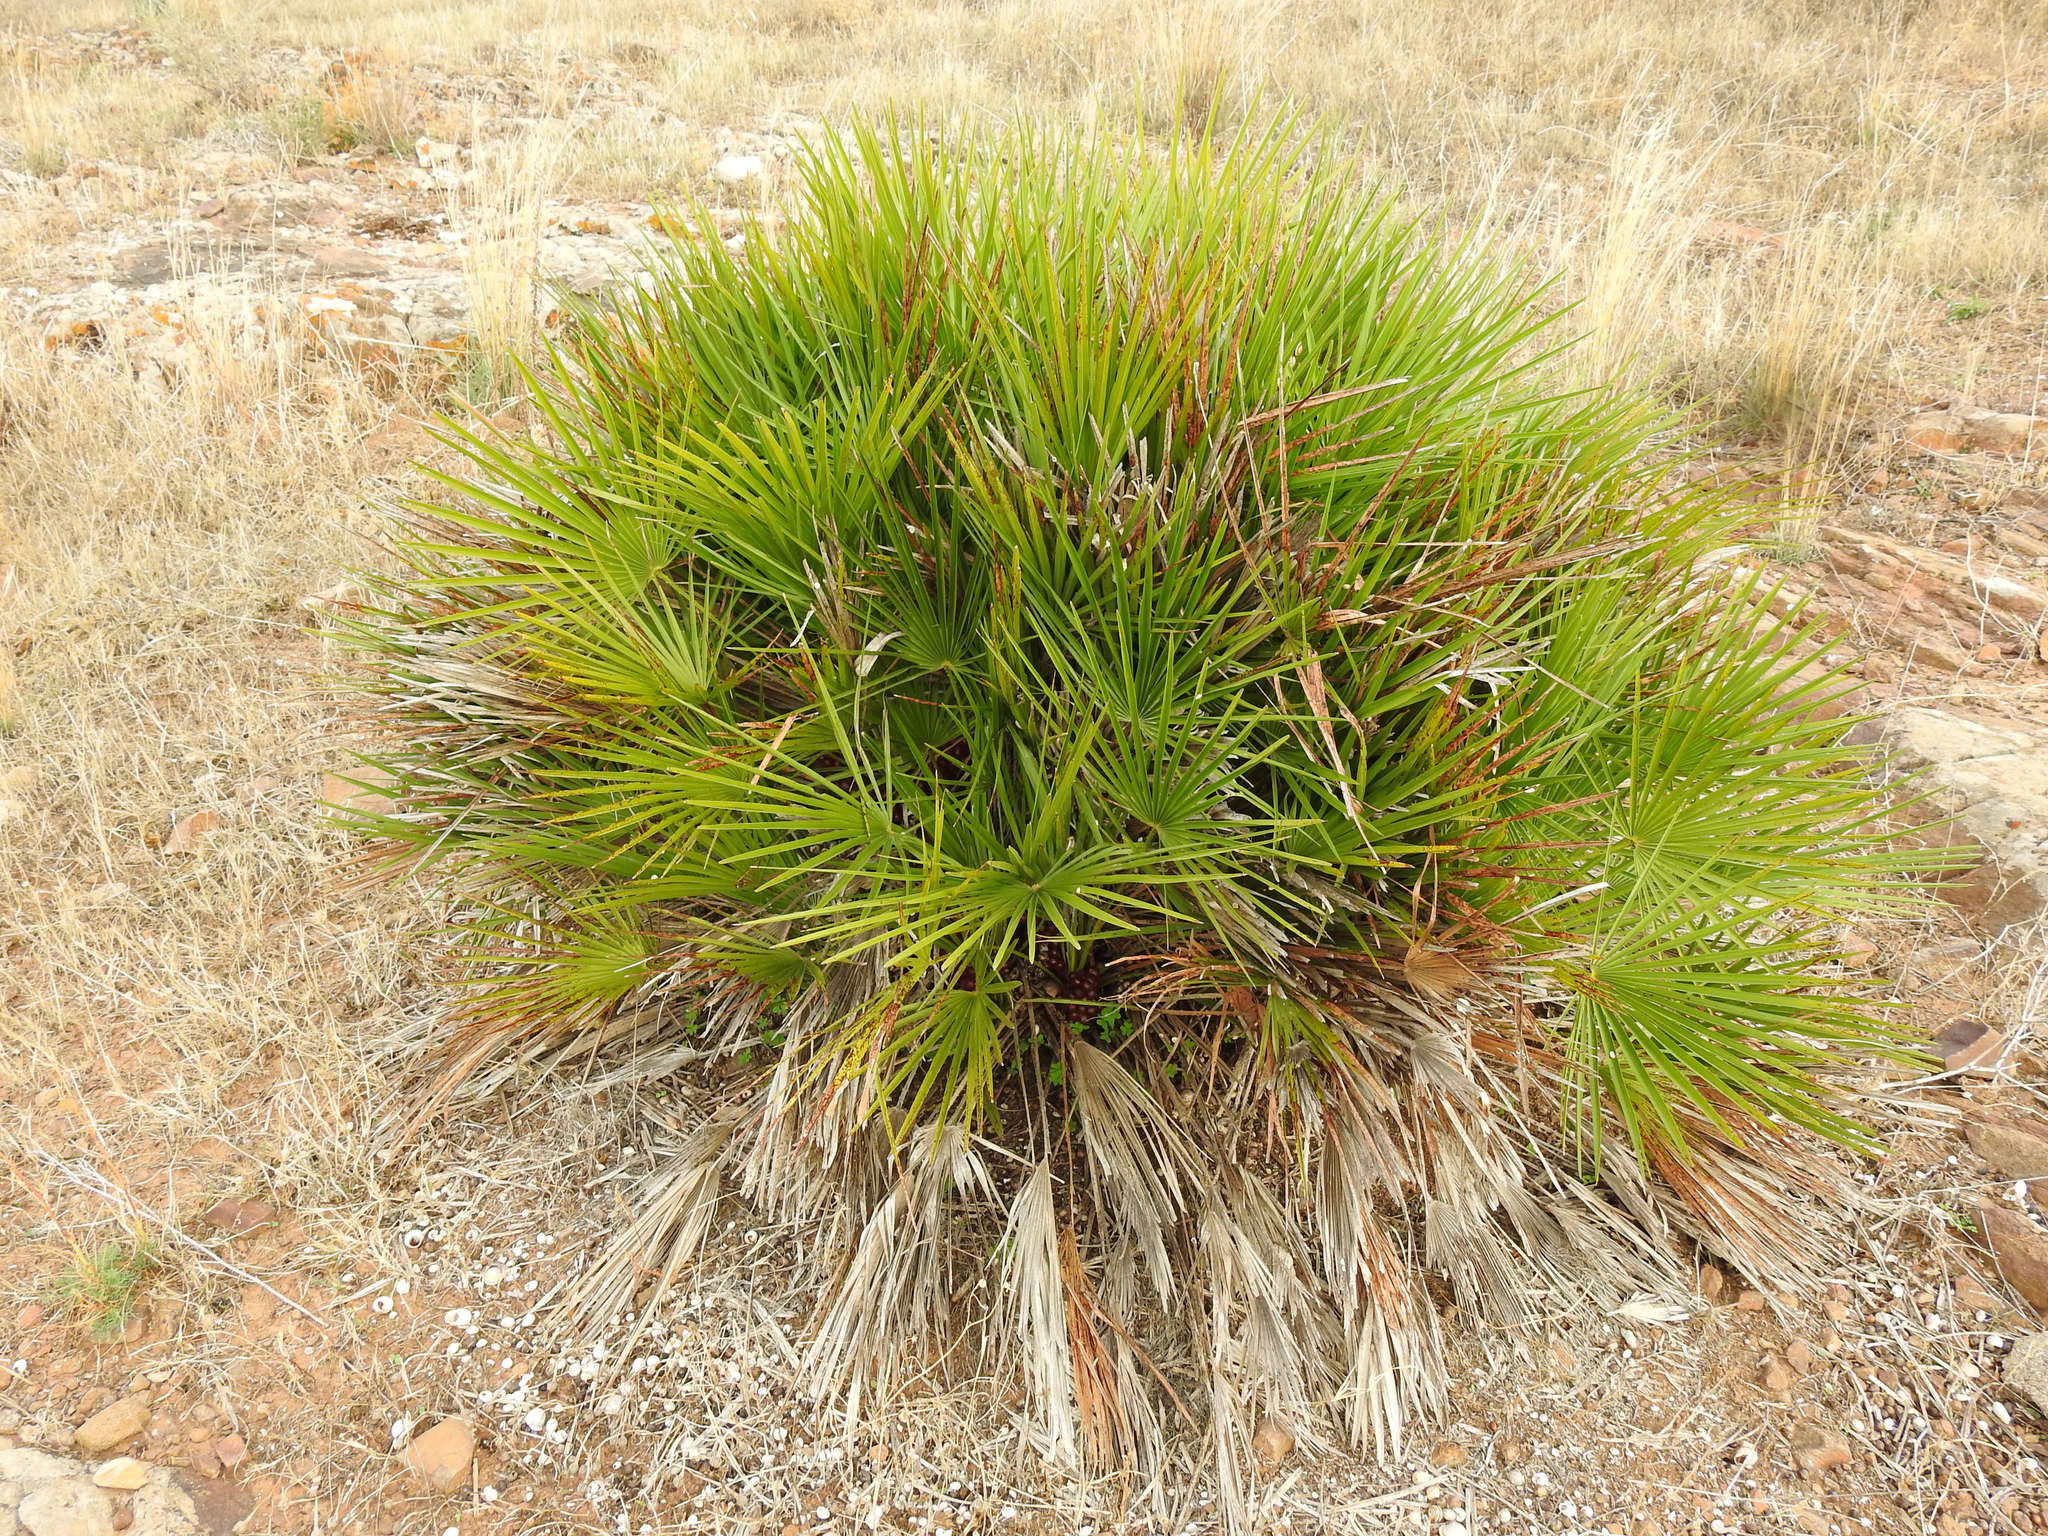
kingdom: Plantae
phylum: Tracheophyta
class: Liliopsida
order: Arecales
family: Arecaceae
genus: Chamaerops
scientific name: Chamaerops humilis
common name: Dwarf fan palm
